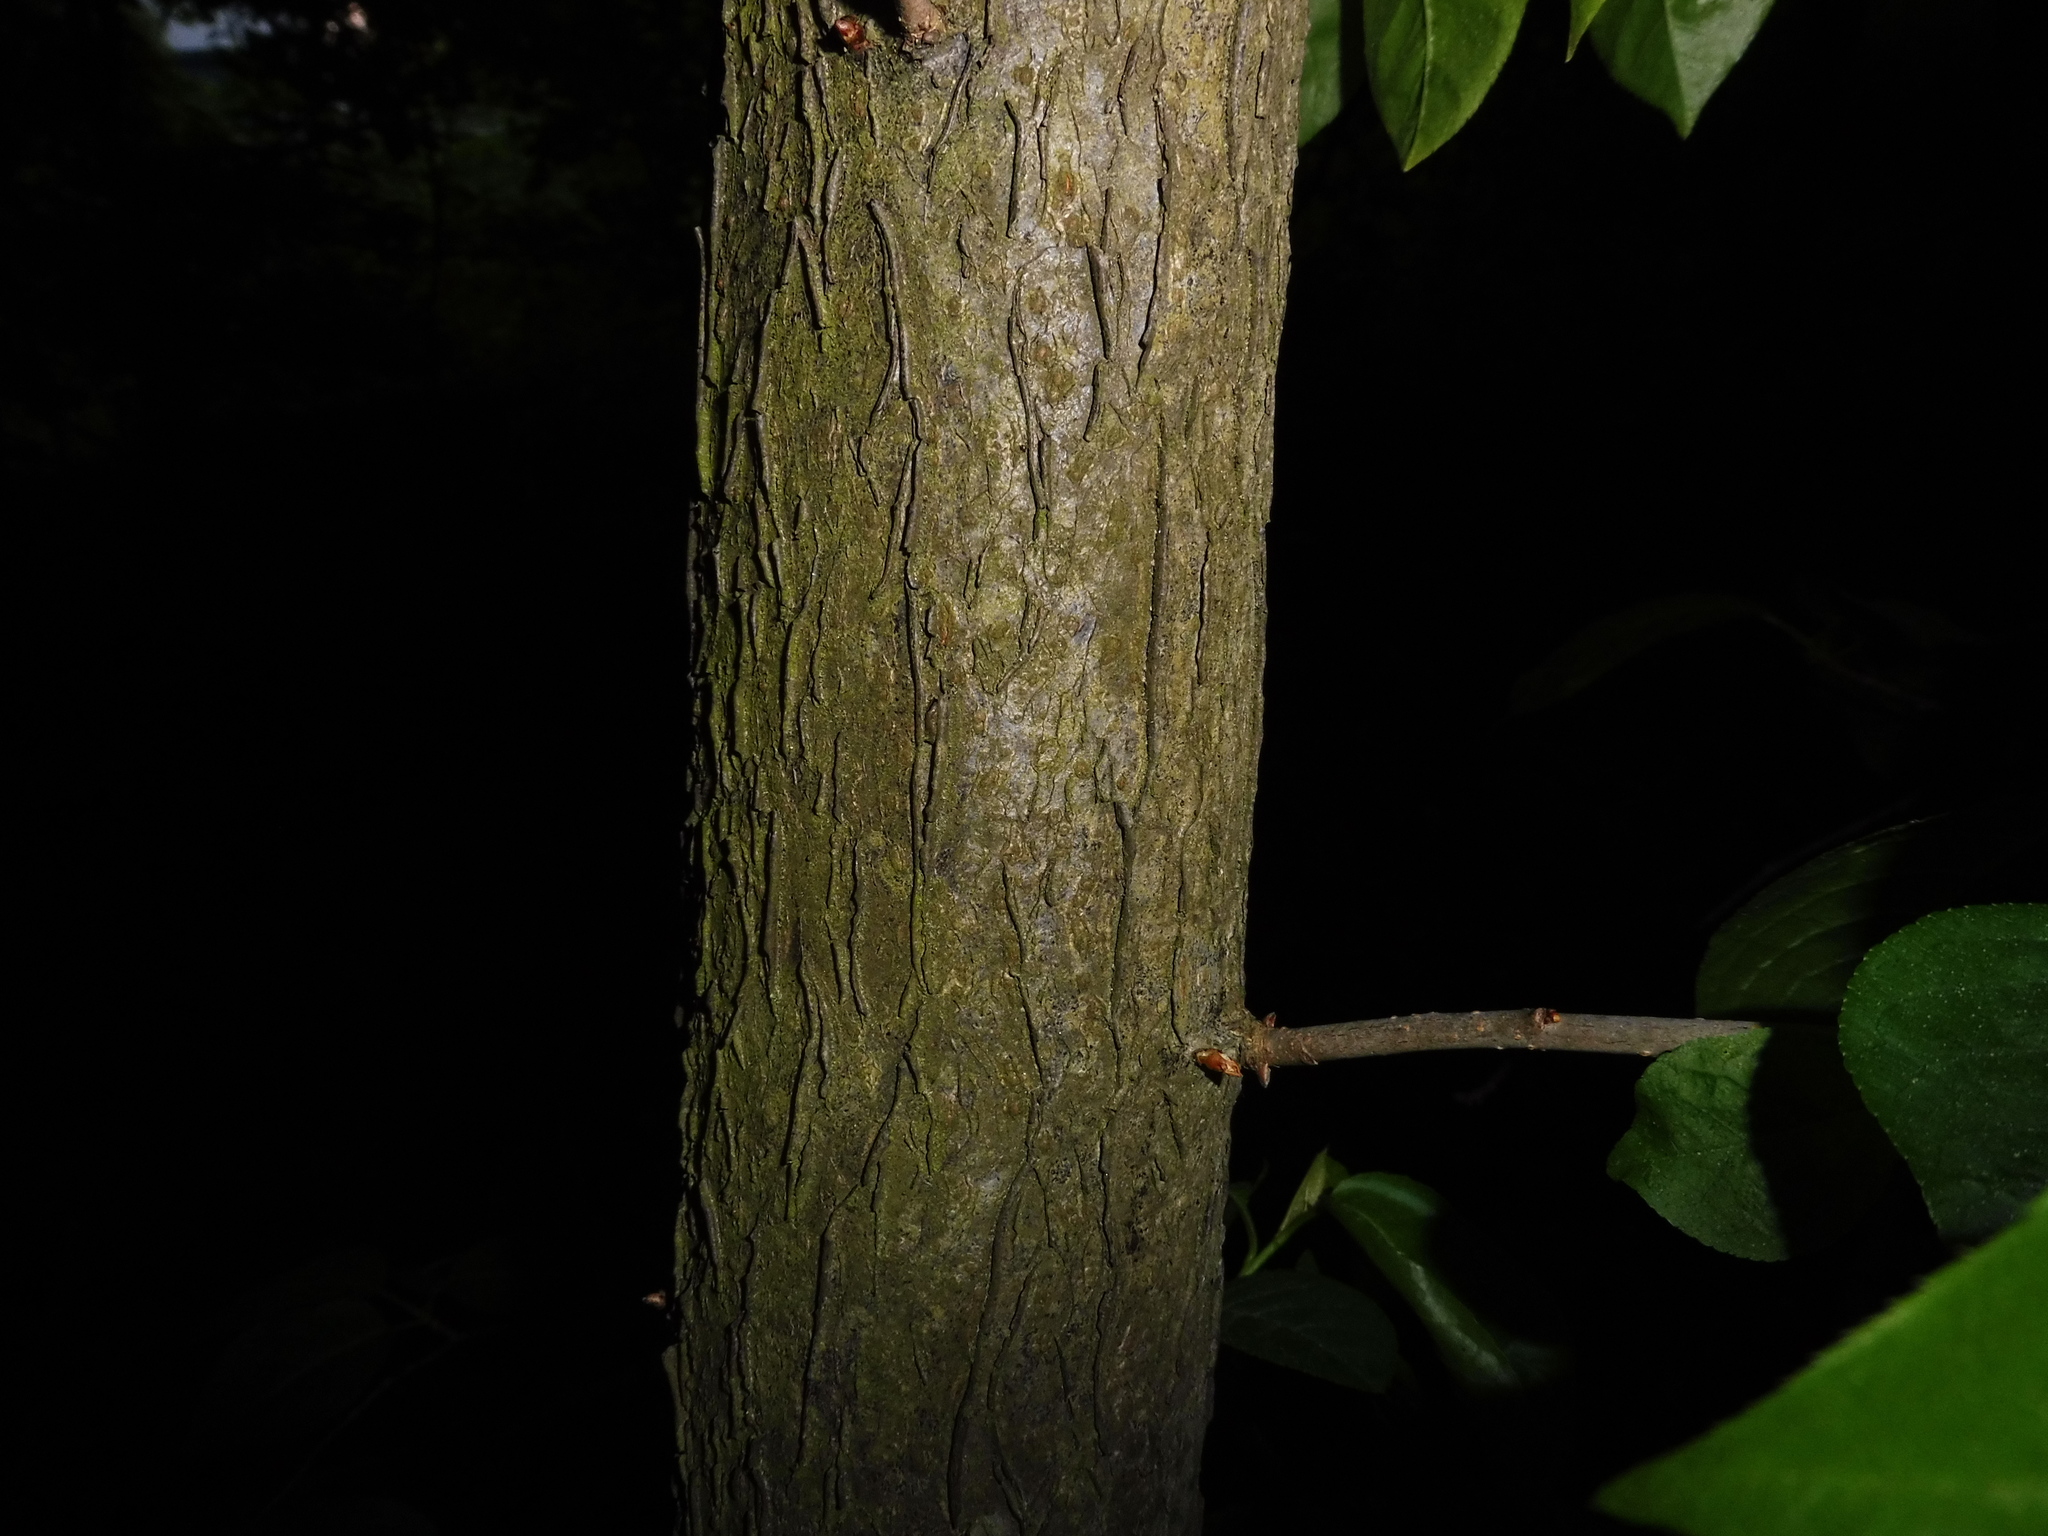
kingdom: Plantae
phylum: Tracheophyta
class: Magnoliopsida
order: Rosales
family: Rosaceae
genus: Prunus
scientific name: Prunus padus
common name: Bird cherry
